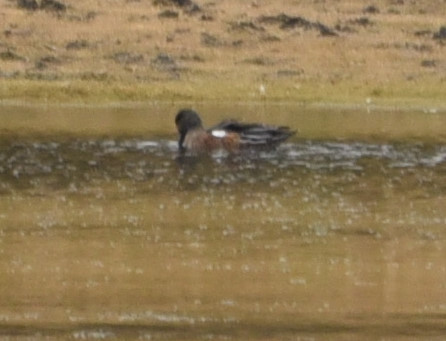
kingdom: Animalia
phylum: Chordata
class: Aves
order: Anseriformes
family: Anatidae
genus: Mareca
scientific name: Mareca americana
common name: American wigeon
